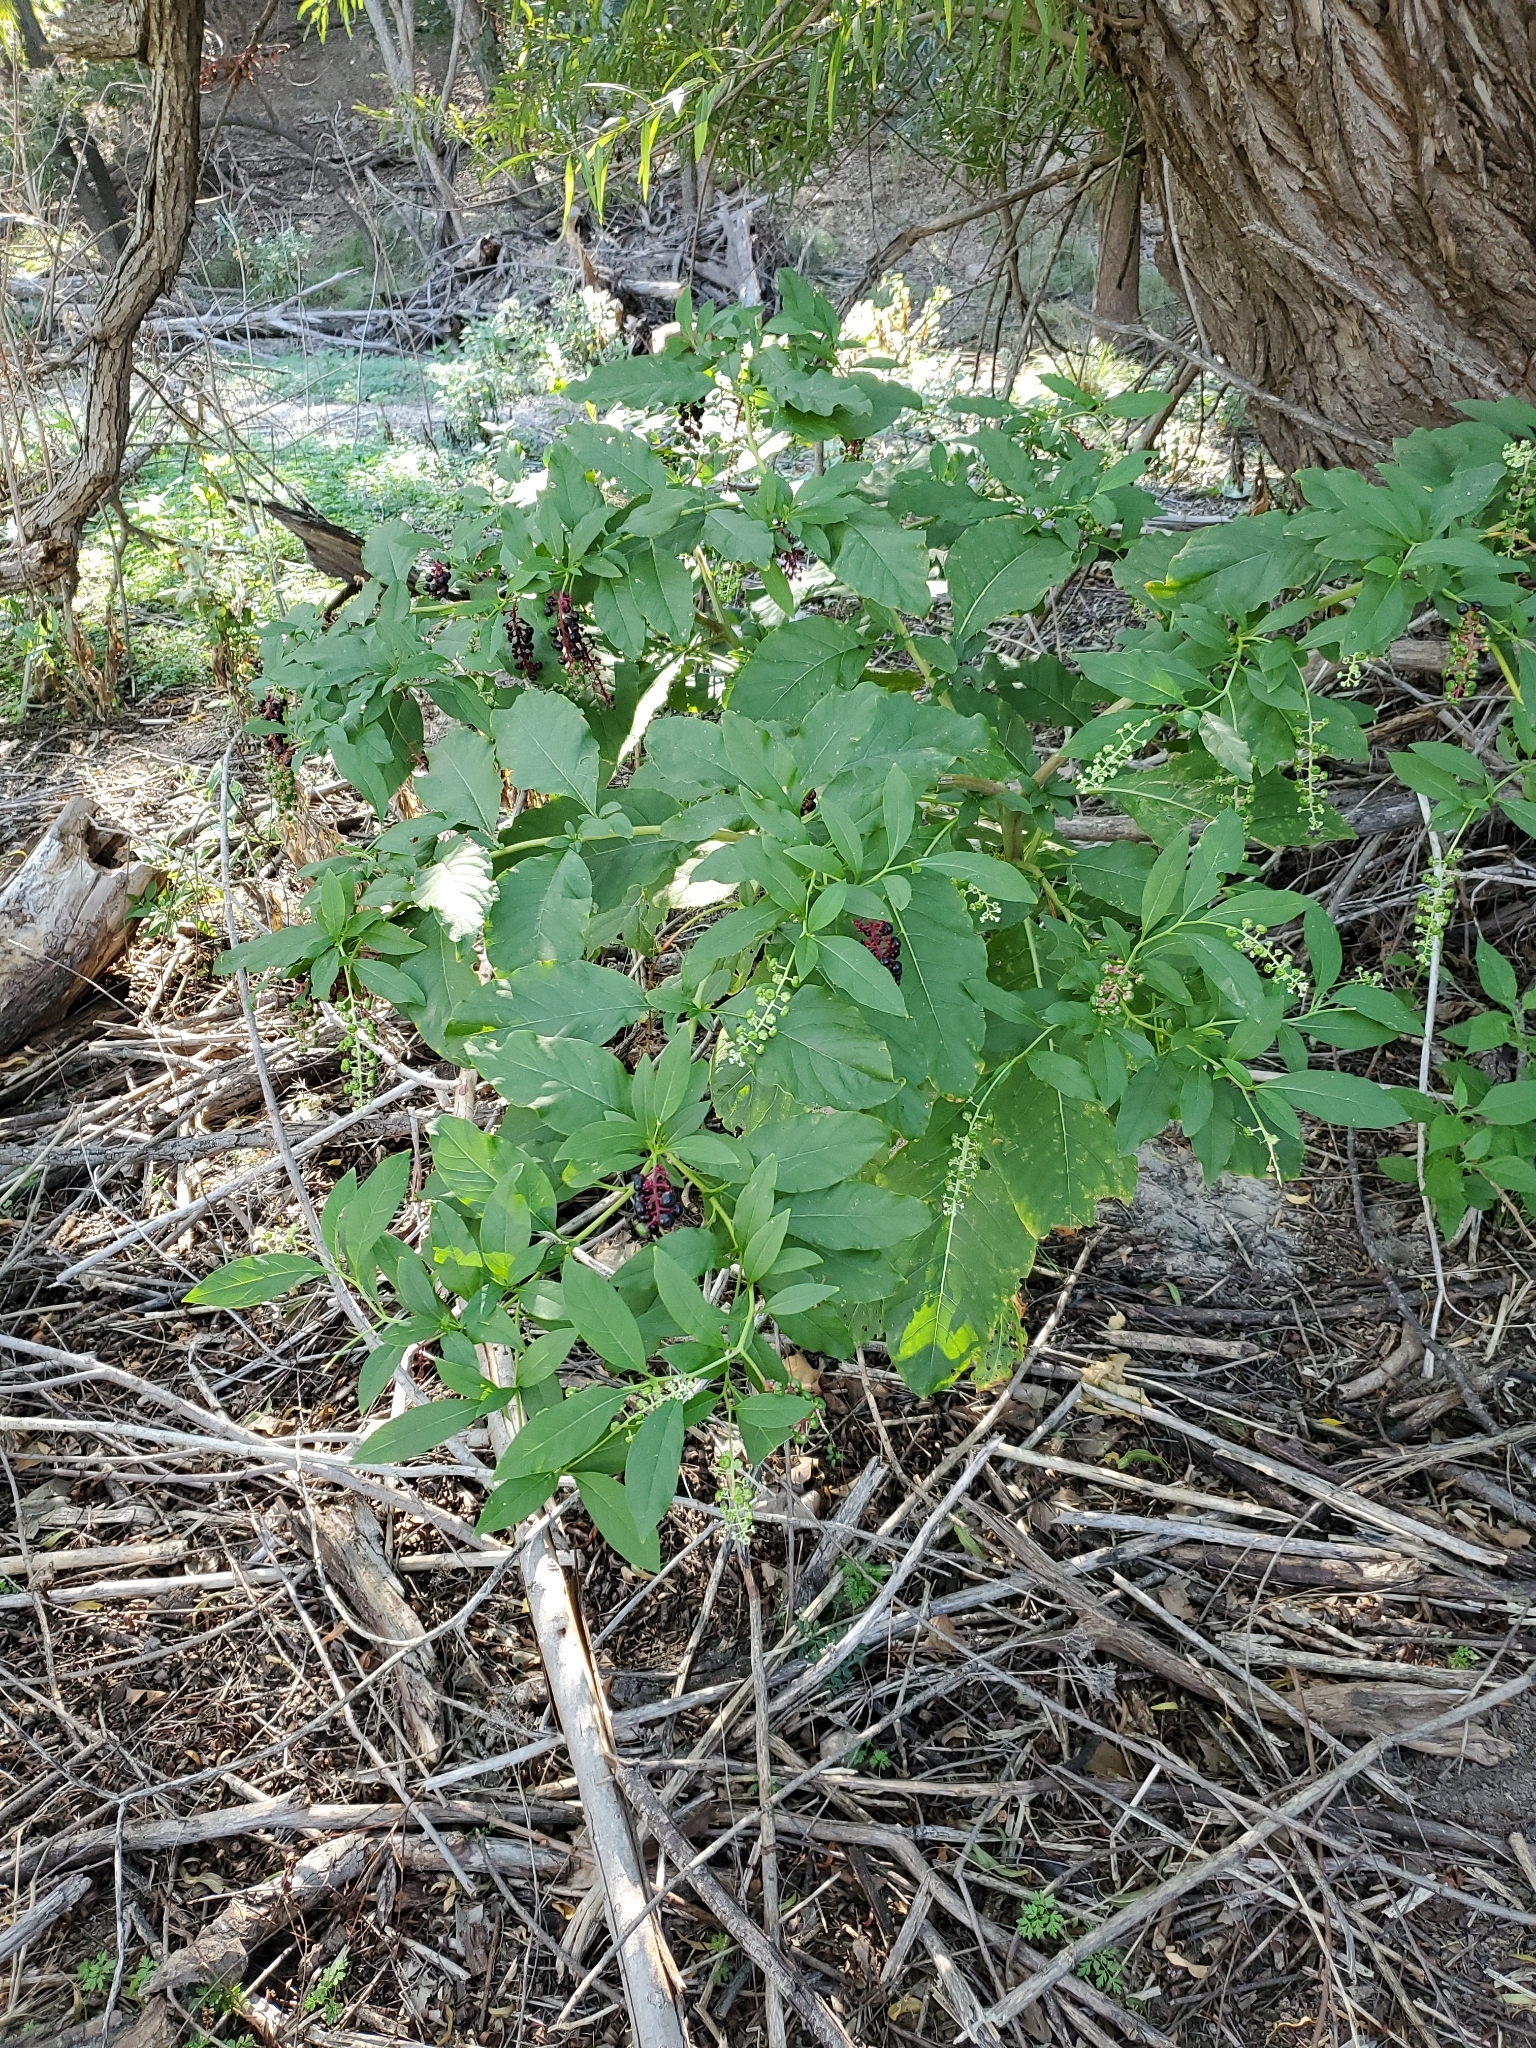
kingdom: Plantae
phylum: Tracheophyta
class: Magnoliopsida
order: Caryophyllales
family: Phytolaccaceae
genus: Phytolacca
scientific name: Phytolacca americana
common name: American pokeweed
